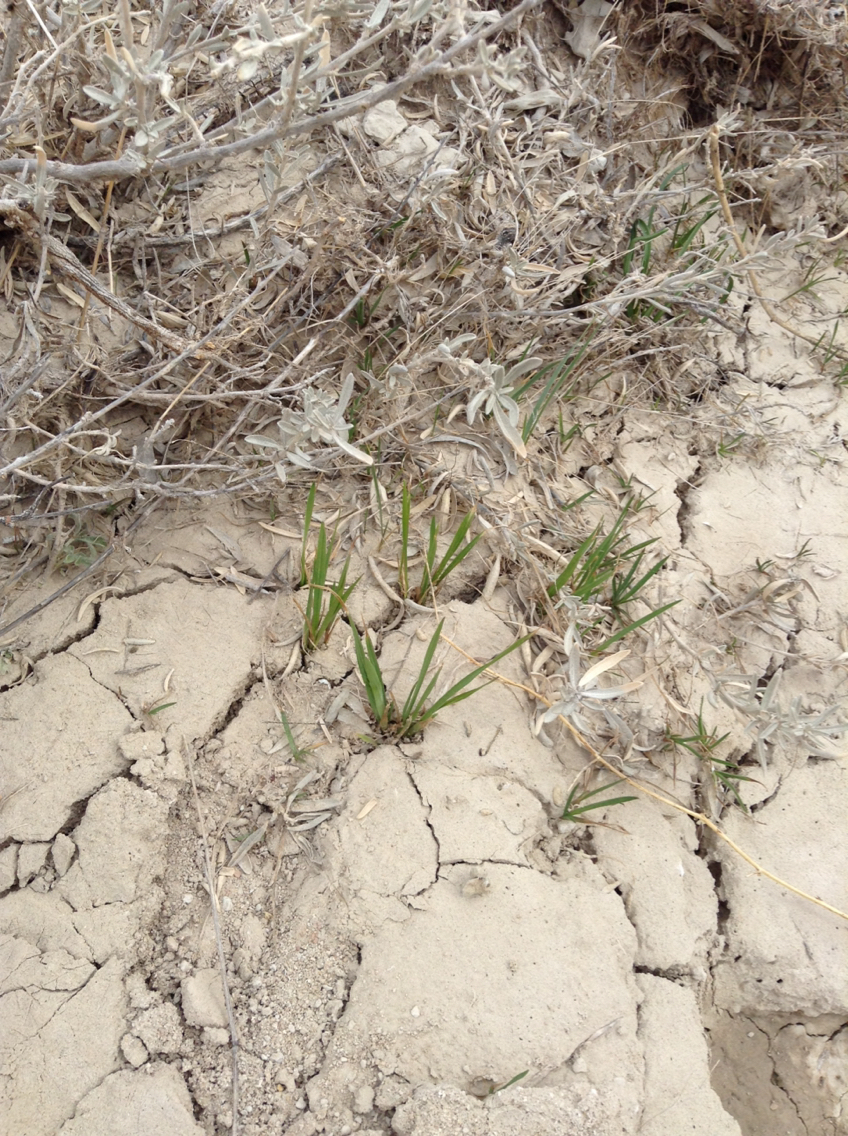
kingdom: Plantae
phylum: Tracheophyta
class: Liliopsida
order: Poales
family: Poaceae
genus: Bromus
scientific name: Bromus inermis
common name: Smooth brome
